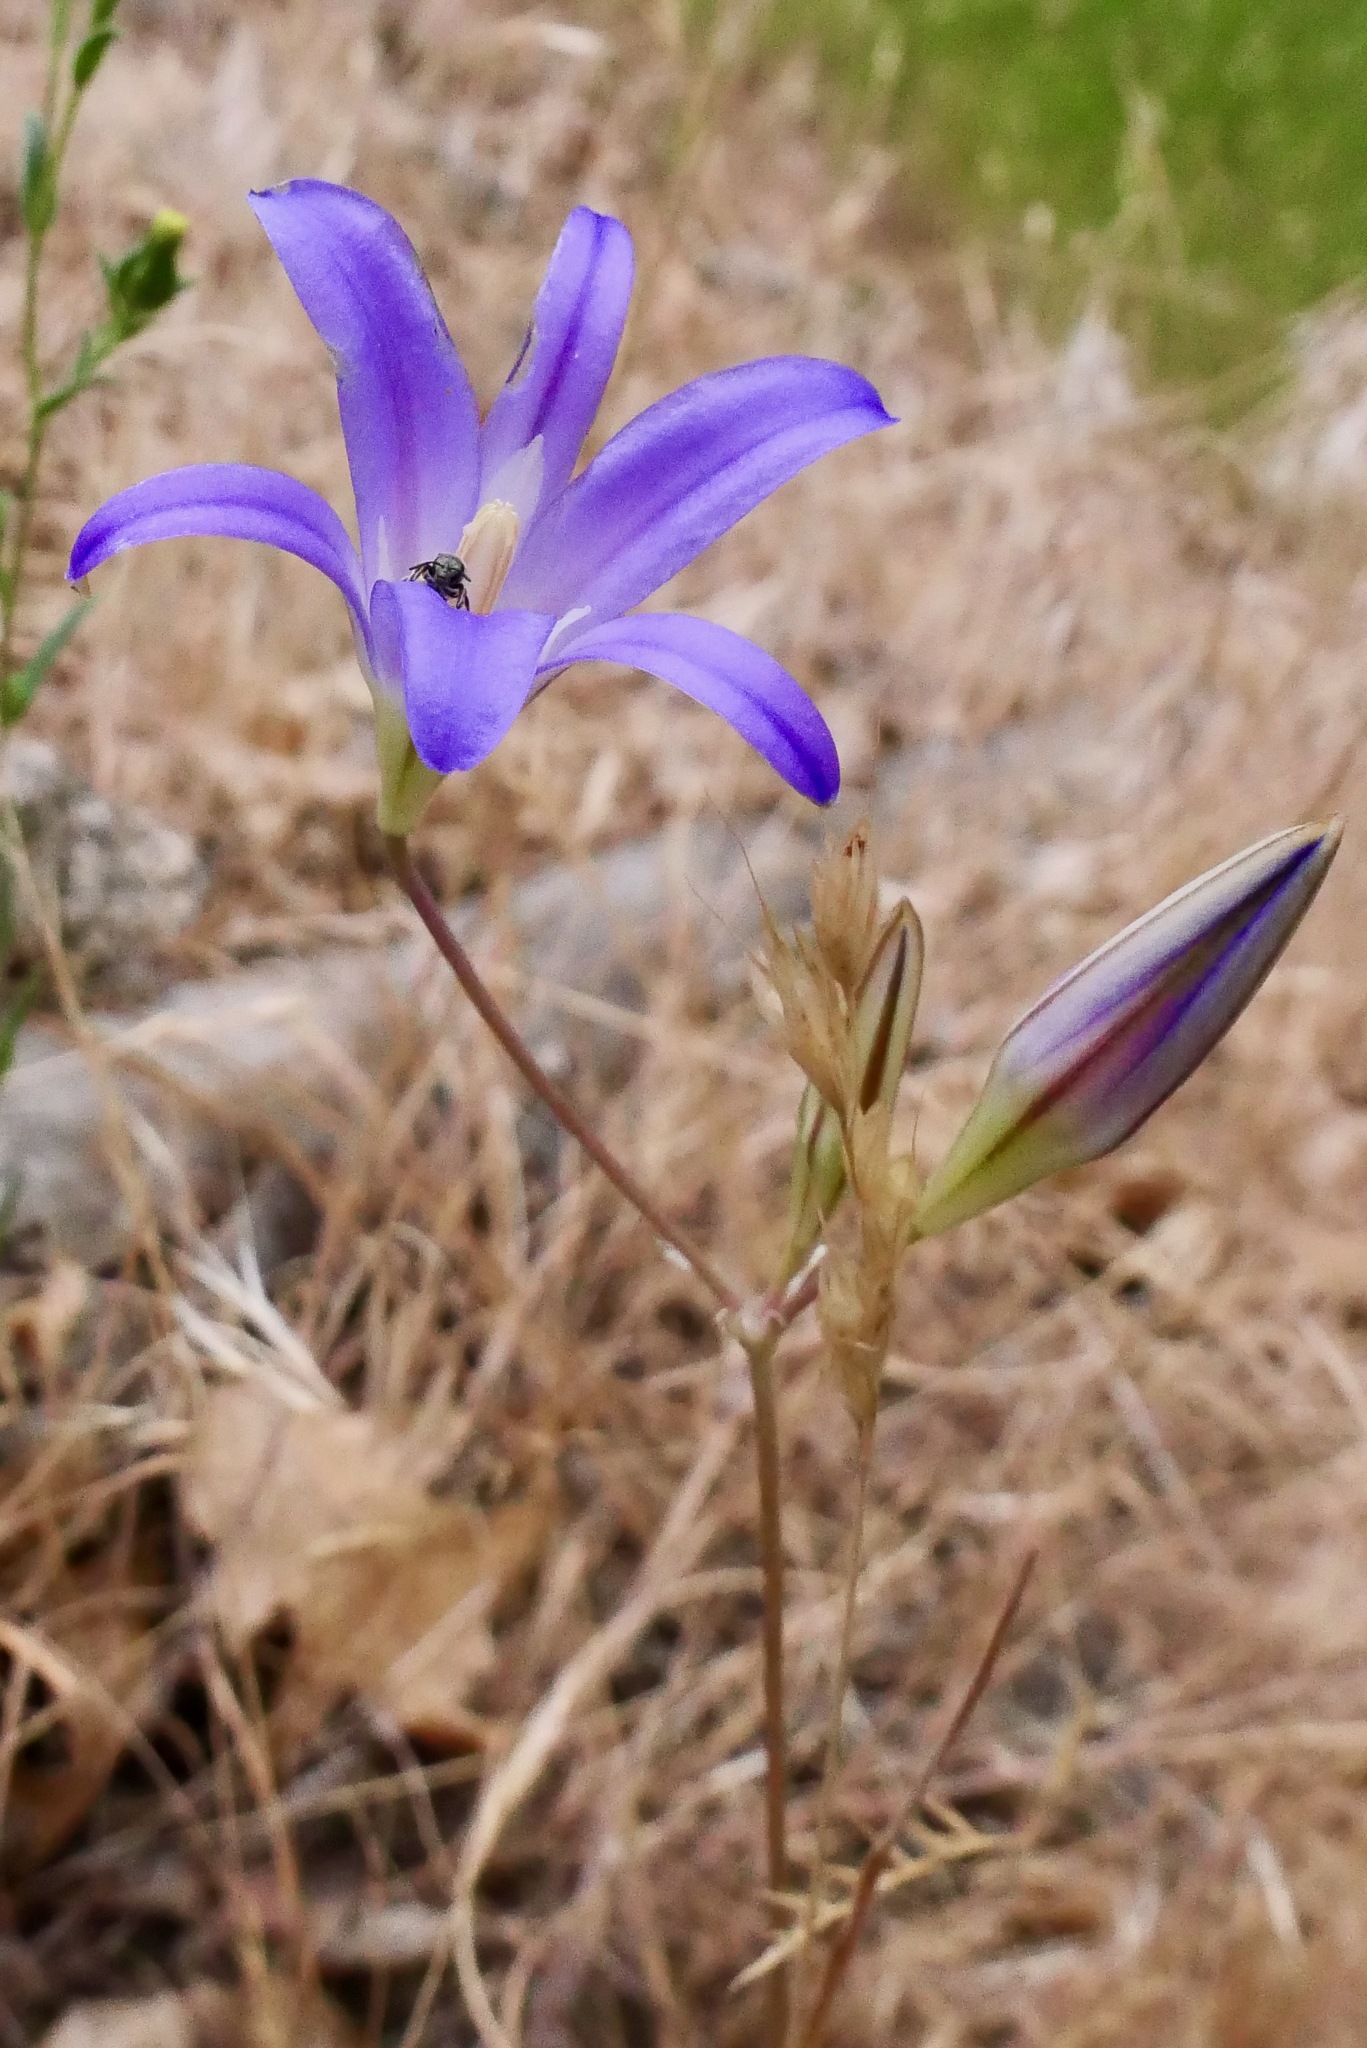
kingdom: Plantae
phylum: Tracheophyta
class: Liliopsida
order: Asparagales
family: Asparagaceae
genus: Brodiaea
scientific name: Brodiaea elegans
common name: Elegant cluster-lily
